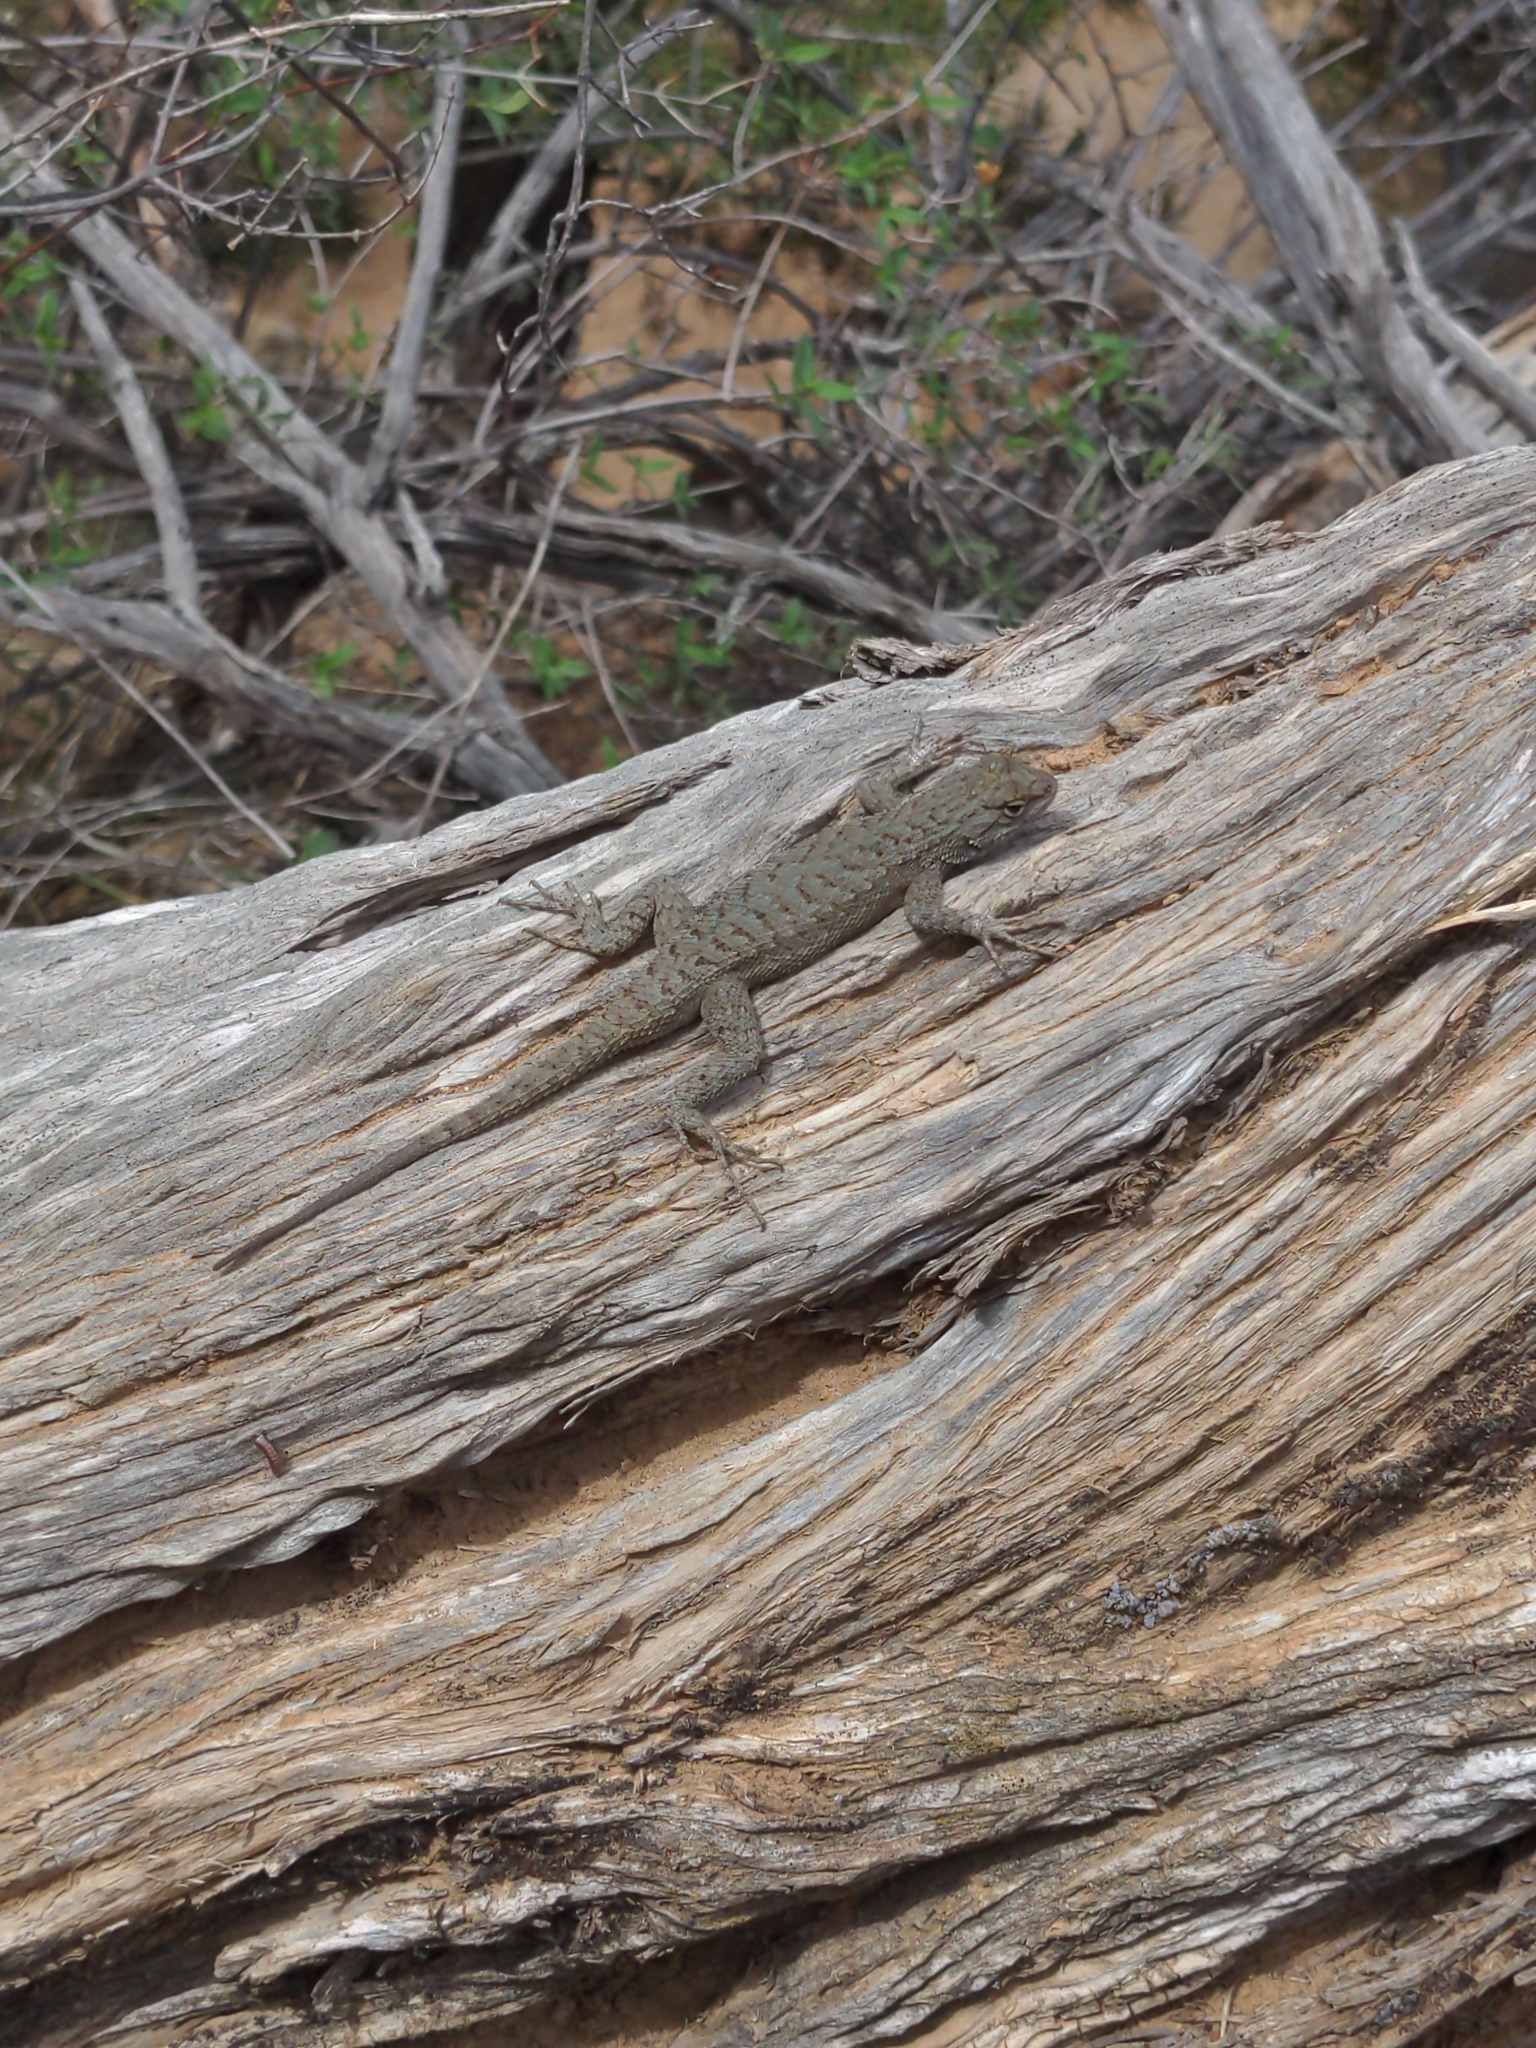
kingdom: Animalia
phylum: Chordata
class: Squamata
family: Phrynosomatidae
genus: Sceloporus
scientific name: Sceloporus tristichus
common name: Plateau fence lizard
